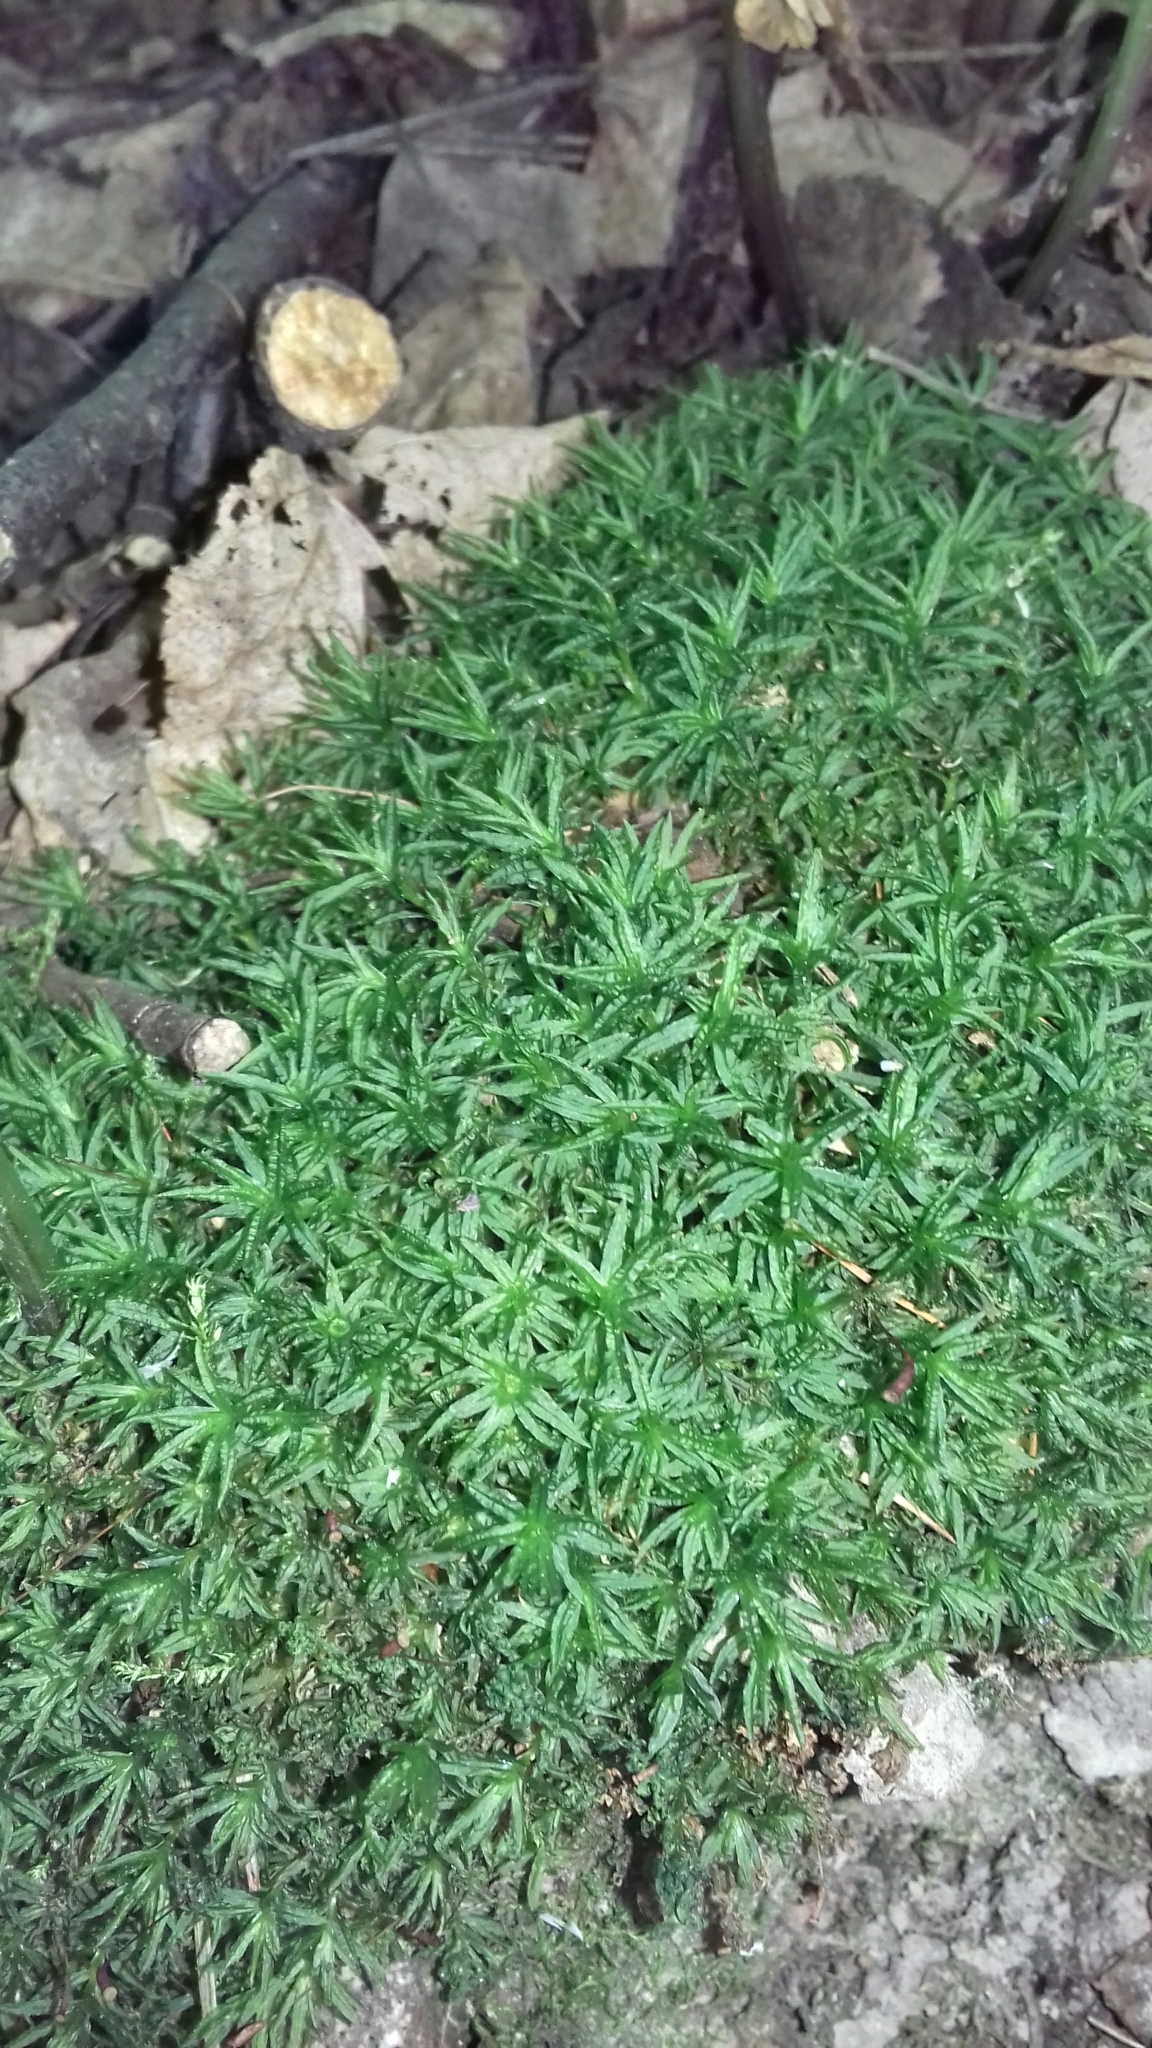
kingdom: Plantae
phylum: Bryophyta
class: Polytrichopsida
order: Polytrichales
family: Polytrichaceae
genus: Atrichum
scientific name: Atrichum undulatum
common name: Common smoothcap
